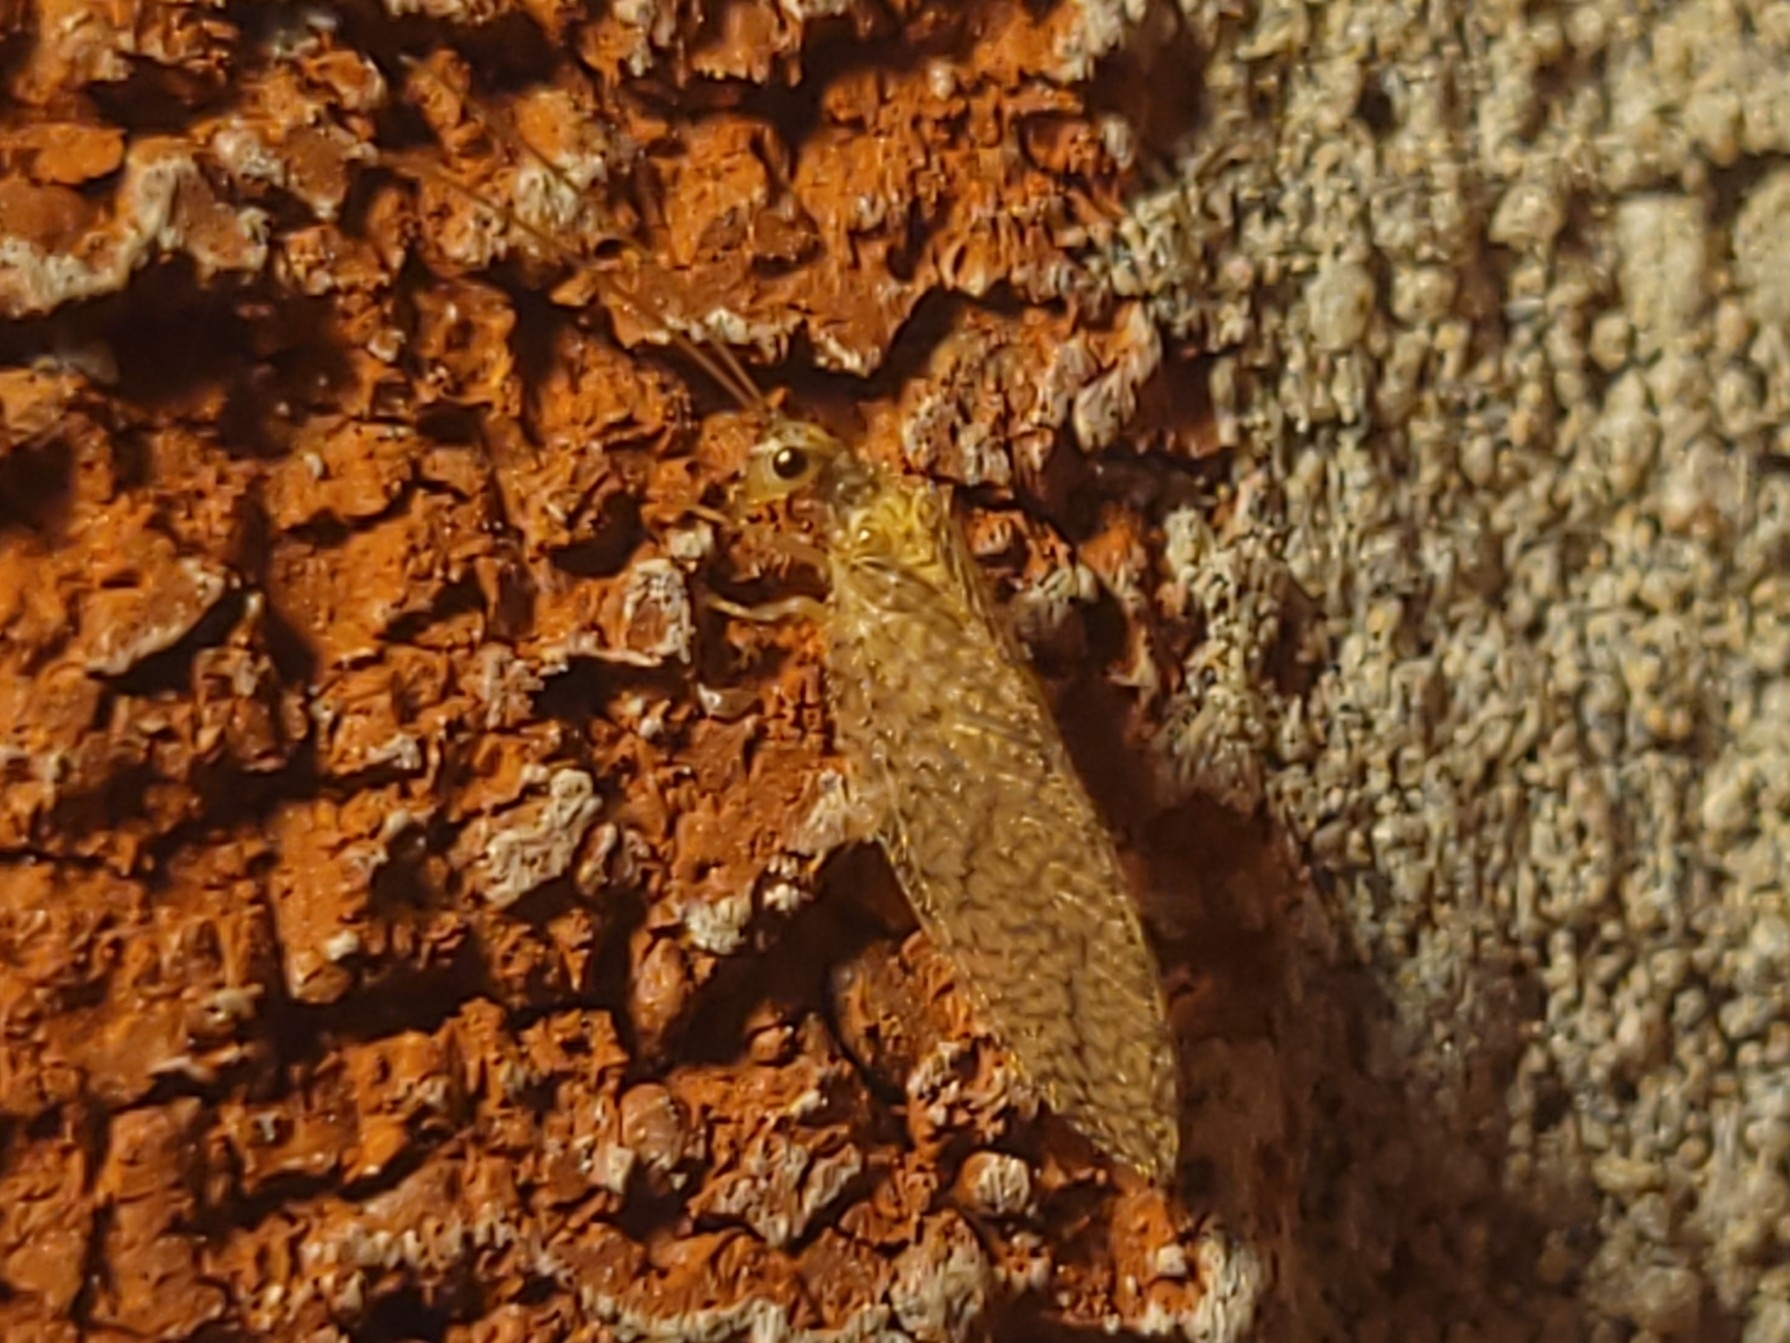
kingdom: Animalia
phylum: Arthropoda
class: Insecta
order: Neuroptera
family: Hemerobiidae
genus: Micromus
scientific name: Micromus posticus
